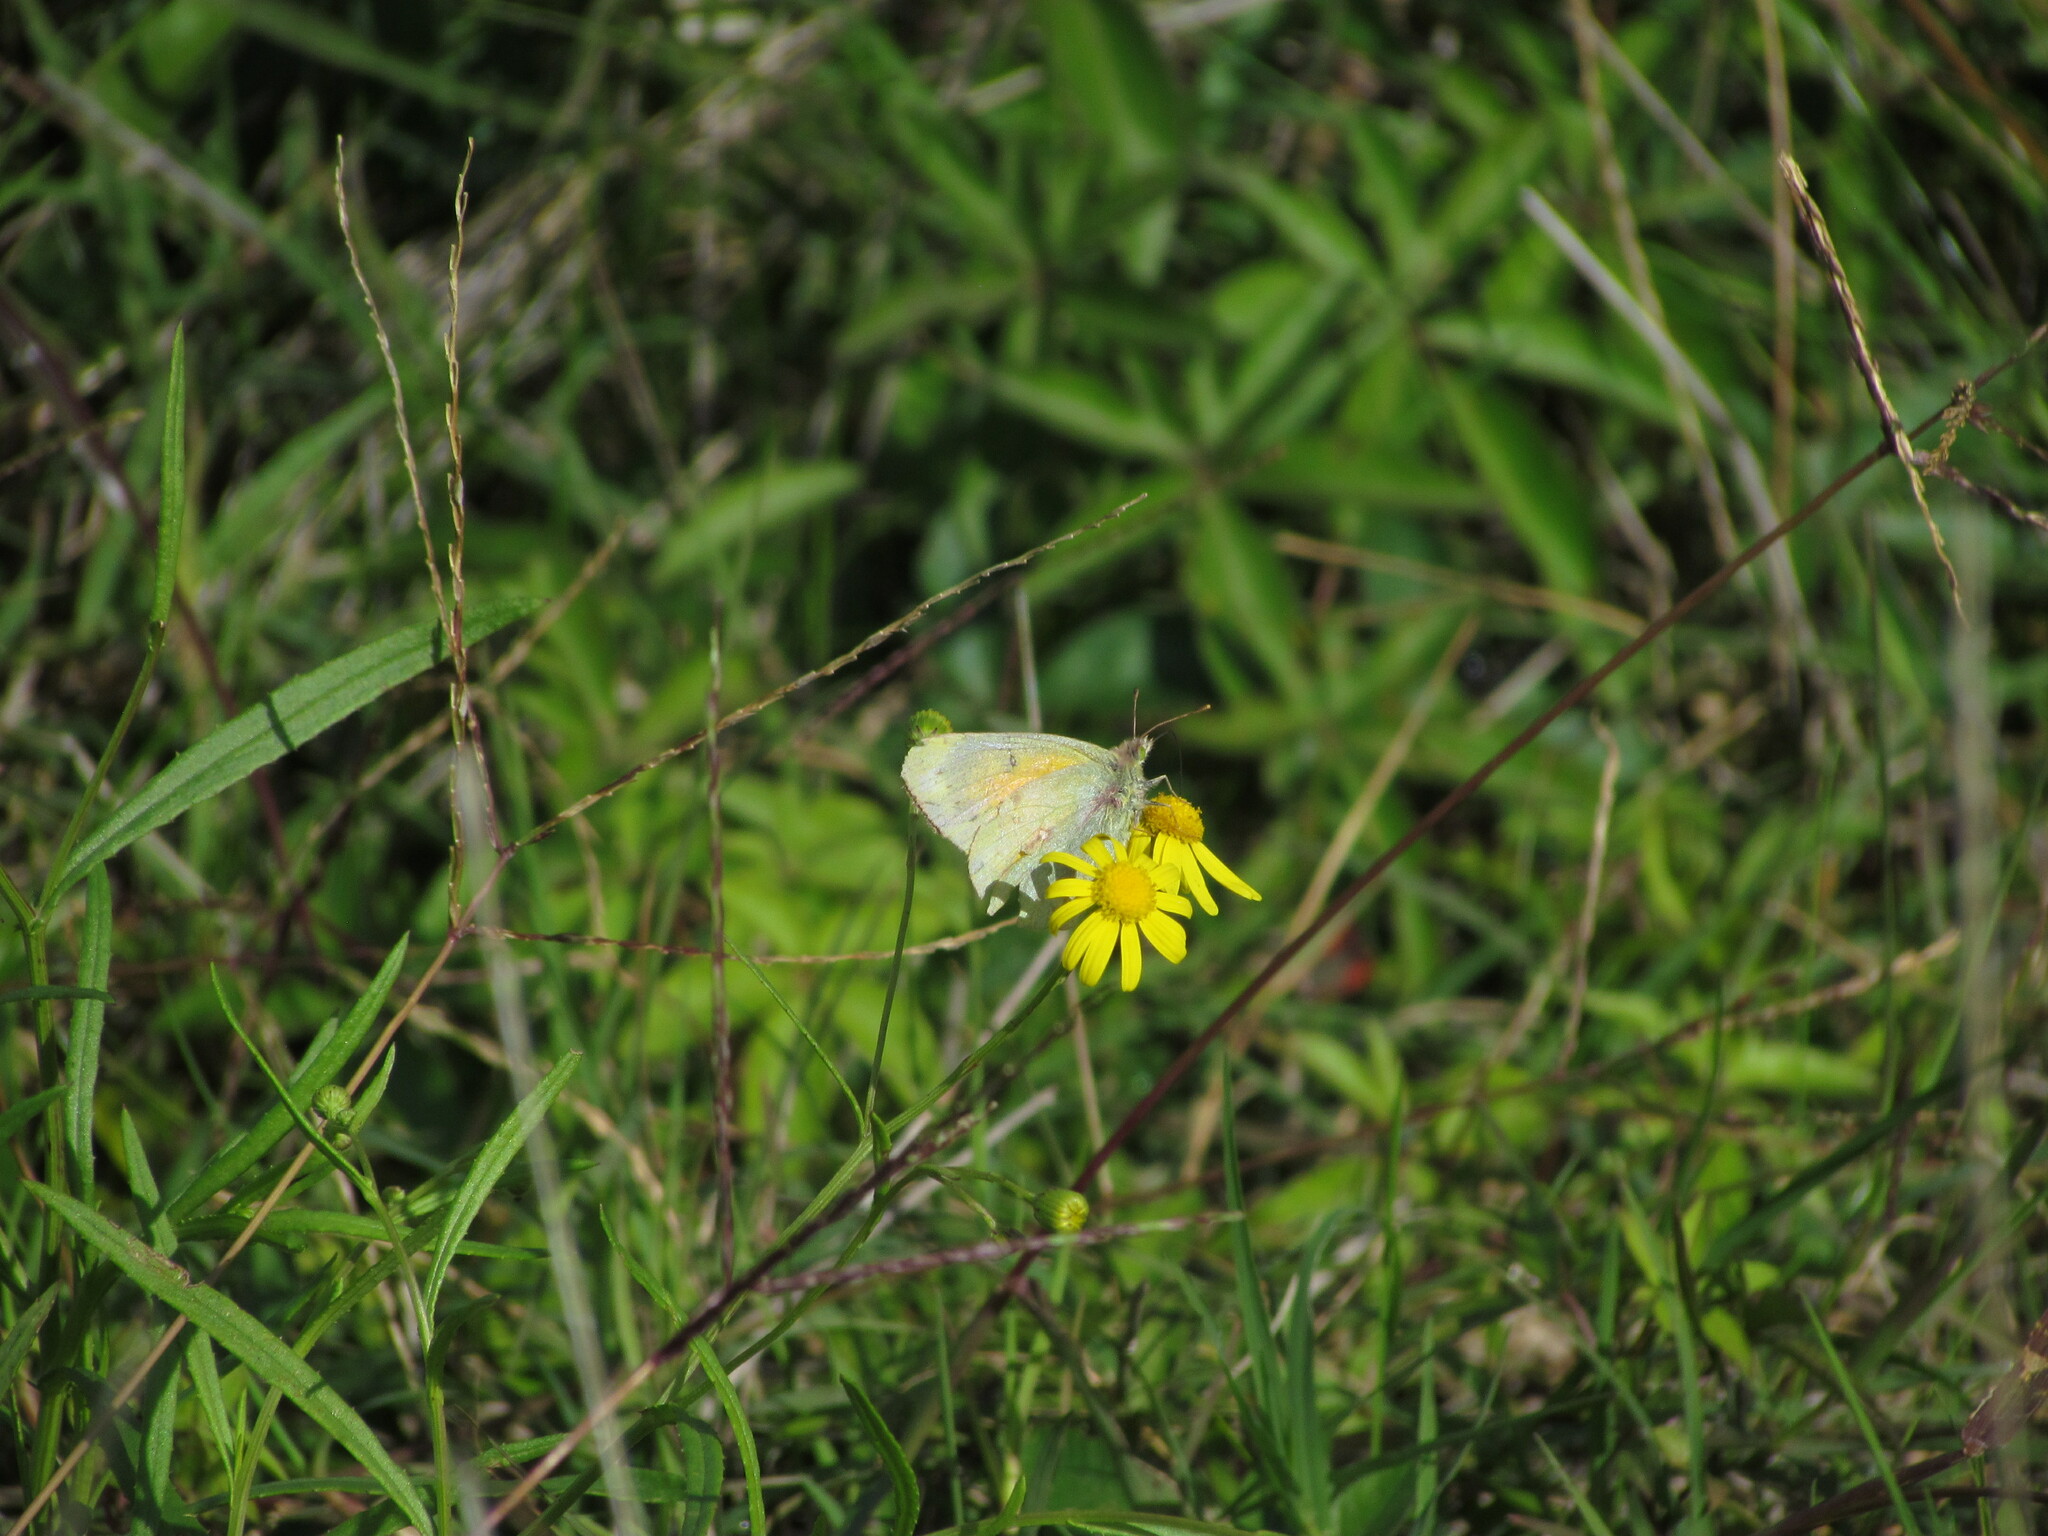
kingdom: Animalia
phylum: Arthropoda
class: Insecta
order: Lepidoptera
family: Pieridae
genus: Colias
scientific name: Colias lesbia
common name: Lesbia clouded yellow
